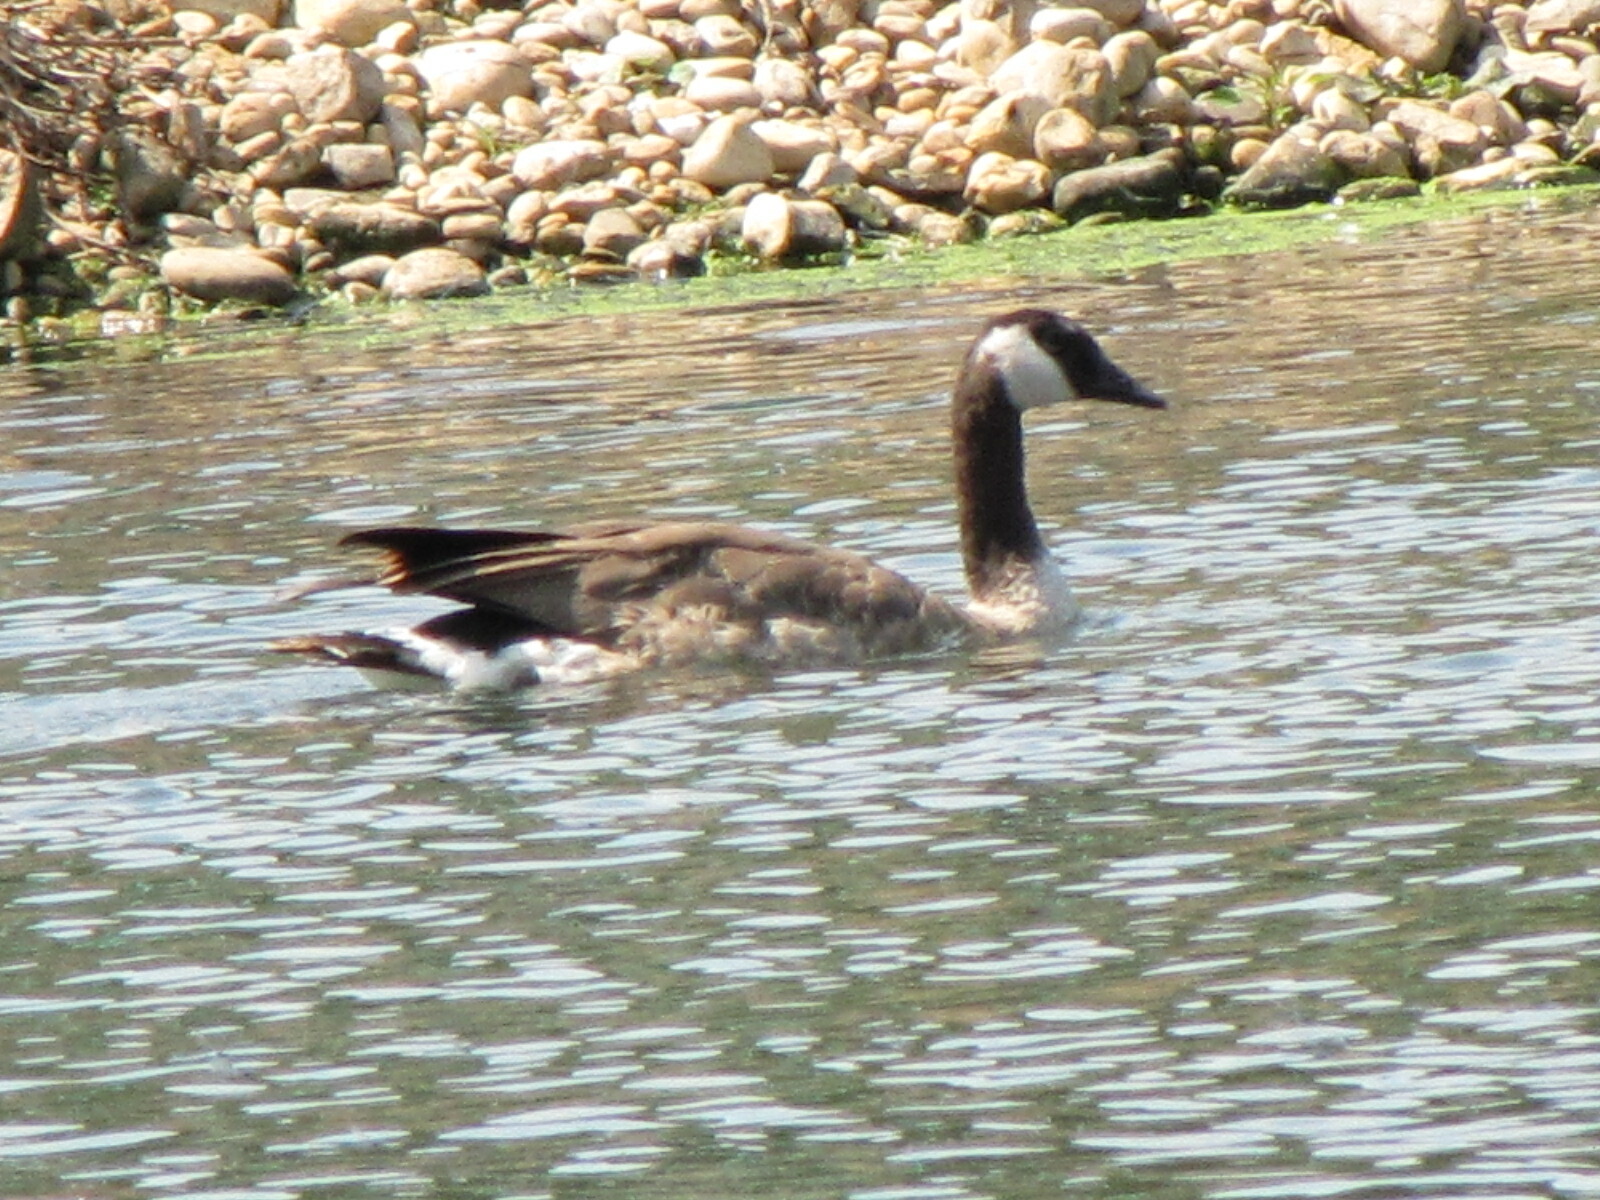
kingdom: Animalia
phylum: Chordata
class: Aves
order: Anseriformes
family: Anatidae
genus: Branta
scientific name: Branta canadensis
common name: Canada goose
